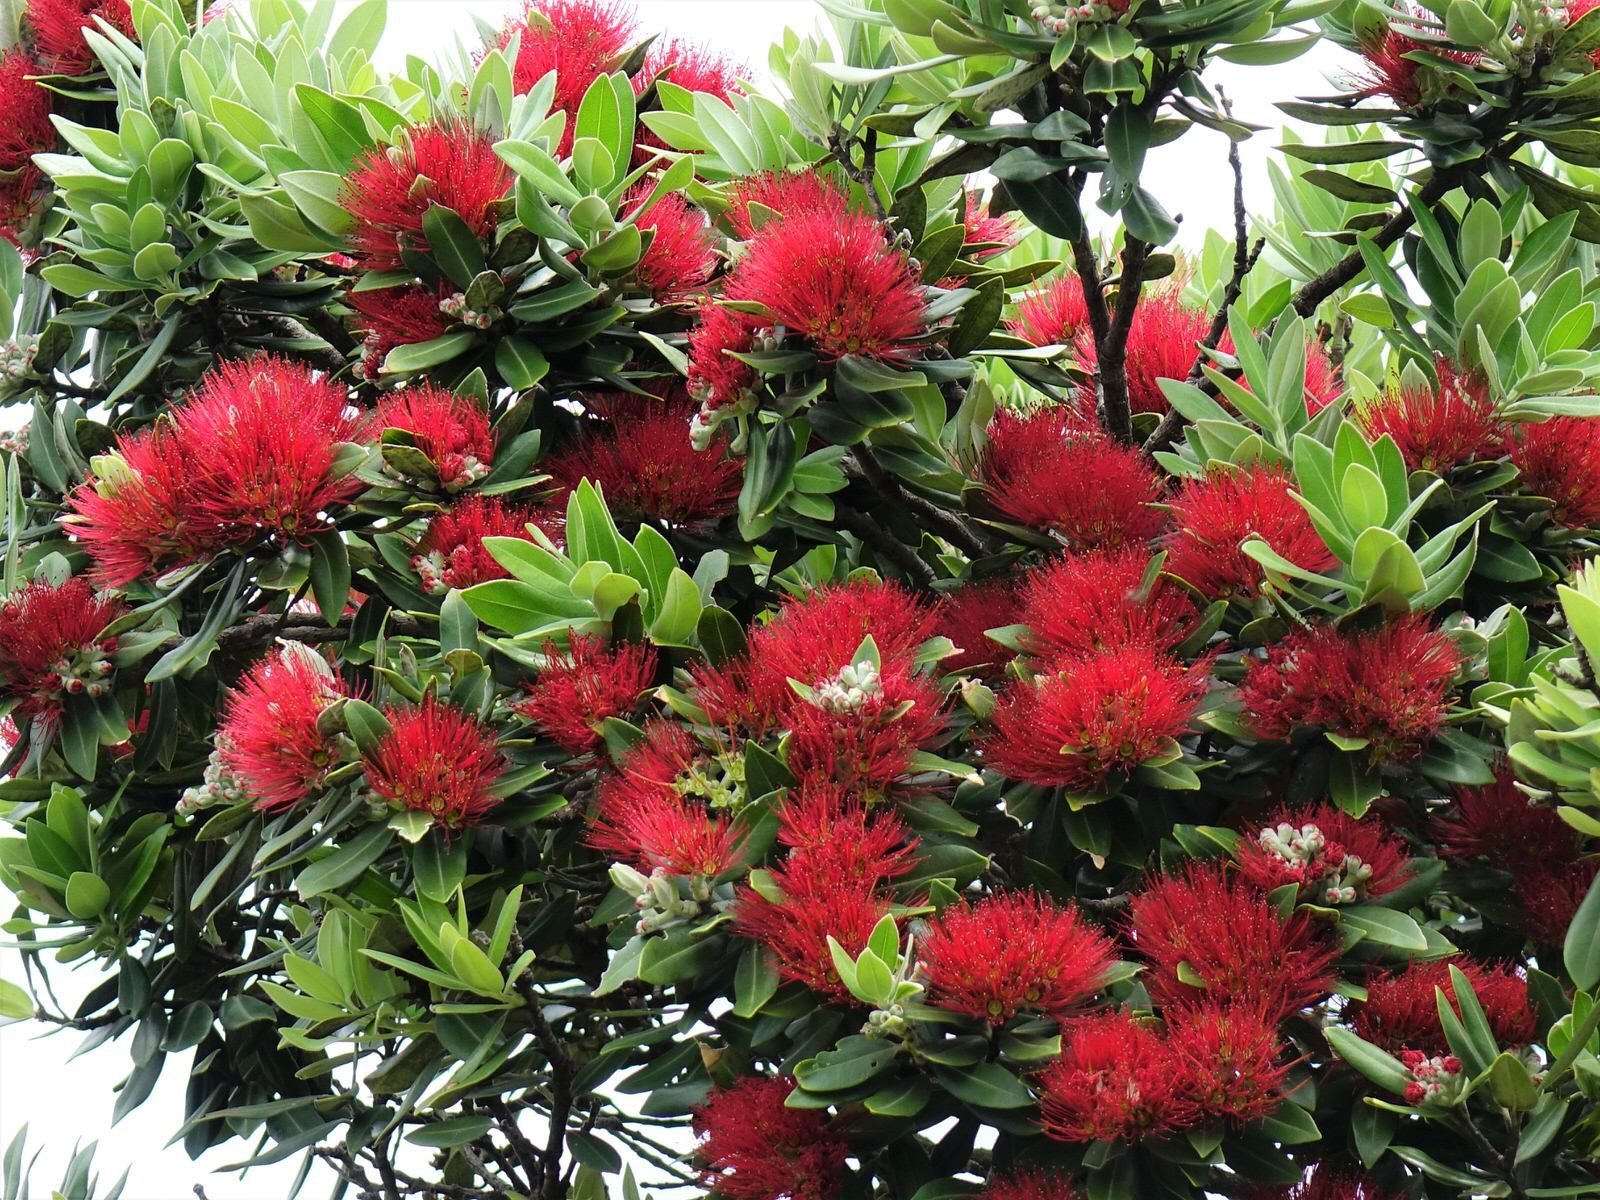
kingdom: Plantae
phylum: Tracheophyta
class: Magnoliopsida
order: Myrtales
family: Myrtaceae
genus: Metrosideros
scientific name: Metrosideros excelsa
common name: New zealand christmastree
